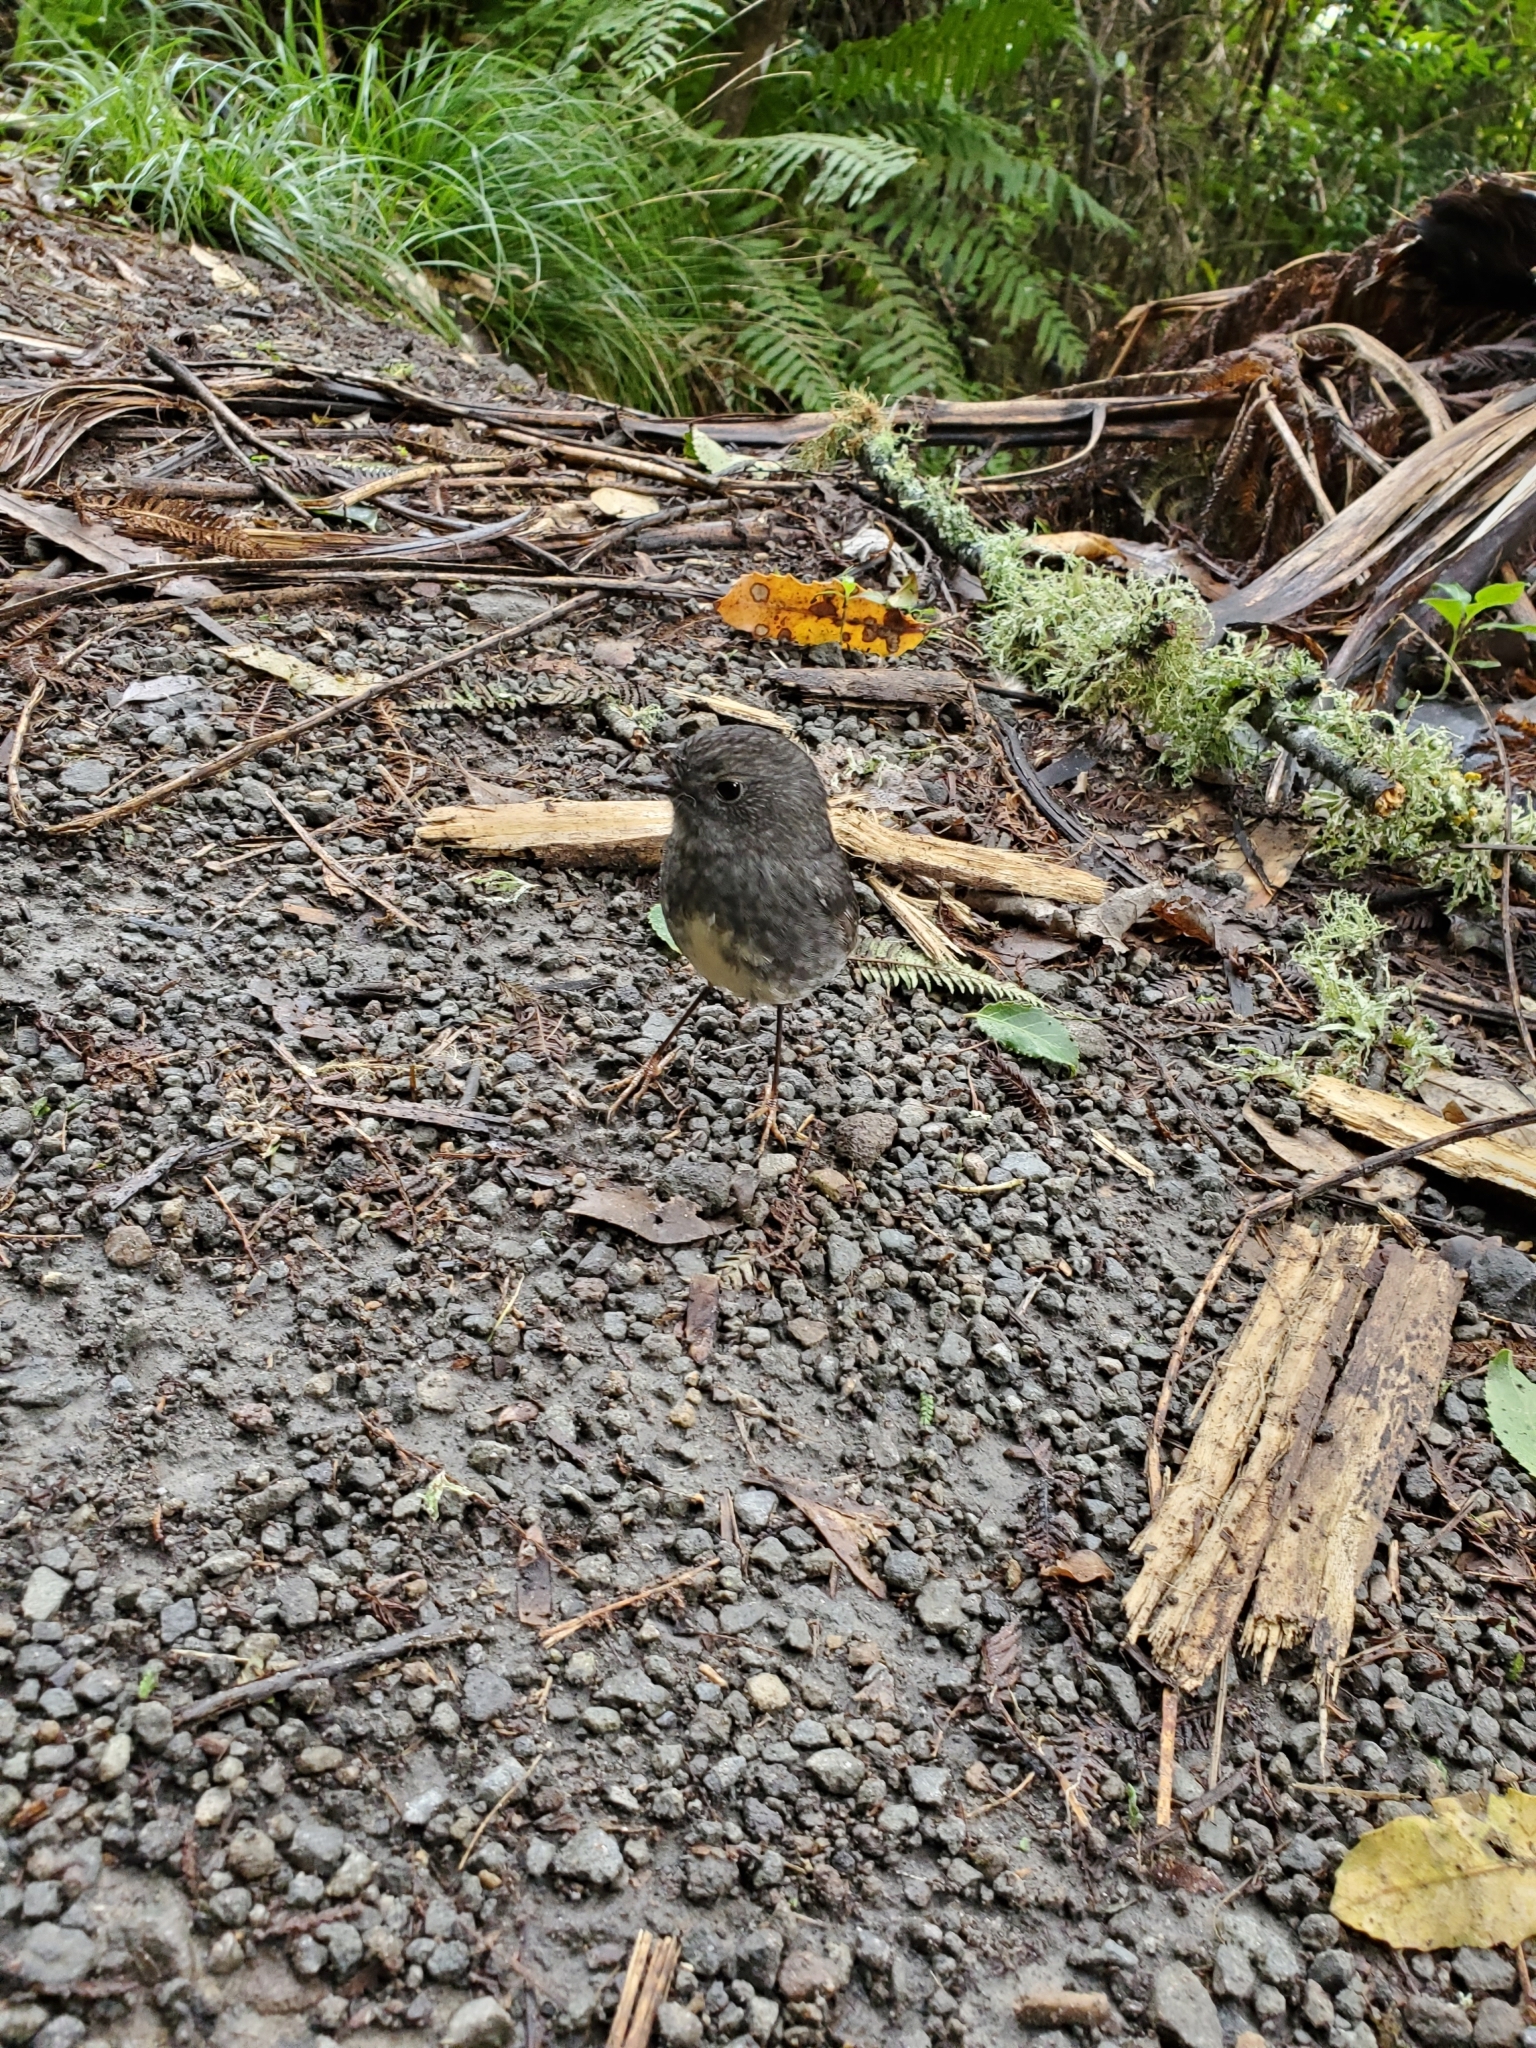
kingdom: Animalia
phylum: Chordata
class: Aves
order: Passeriformes
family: Petroicidae
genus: Petroica
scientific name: Petroica australis
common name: New zealand robin
